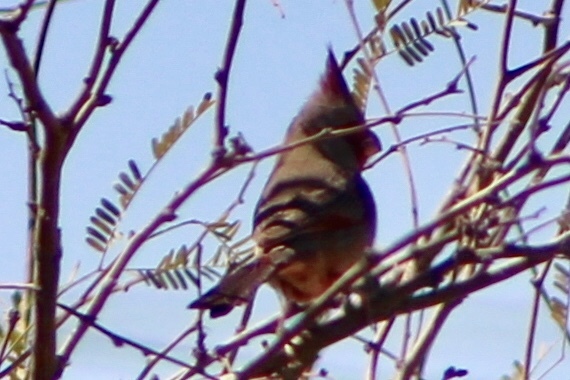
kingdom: Animalia
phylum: Chordata
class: Aves
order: Passeriformes
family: Cardinalidae
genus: Cardinalis
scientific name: Cardinalis sinuatus
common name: Pyrrhuloxia
